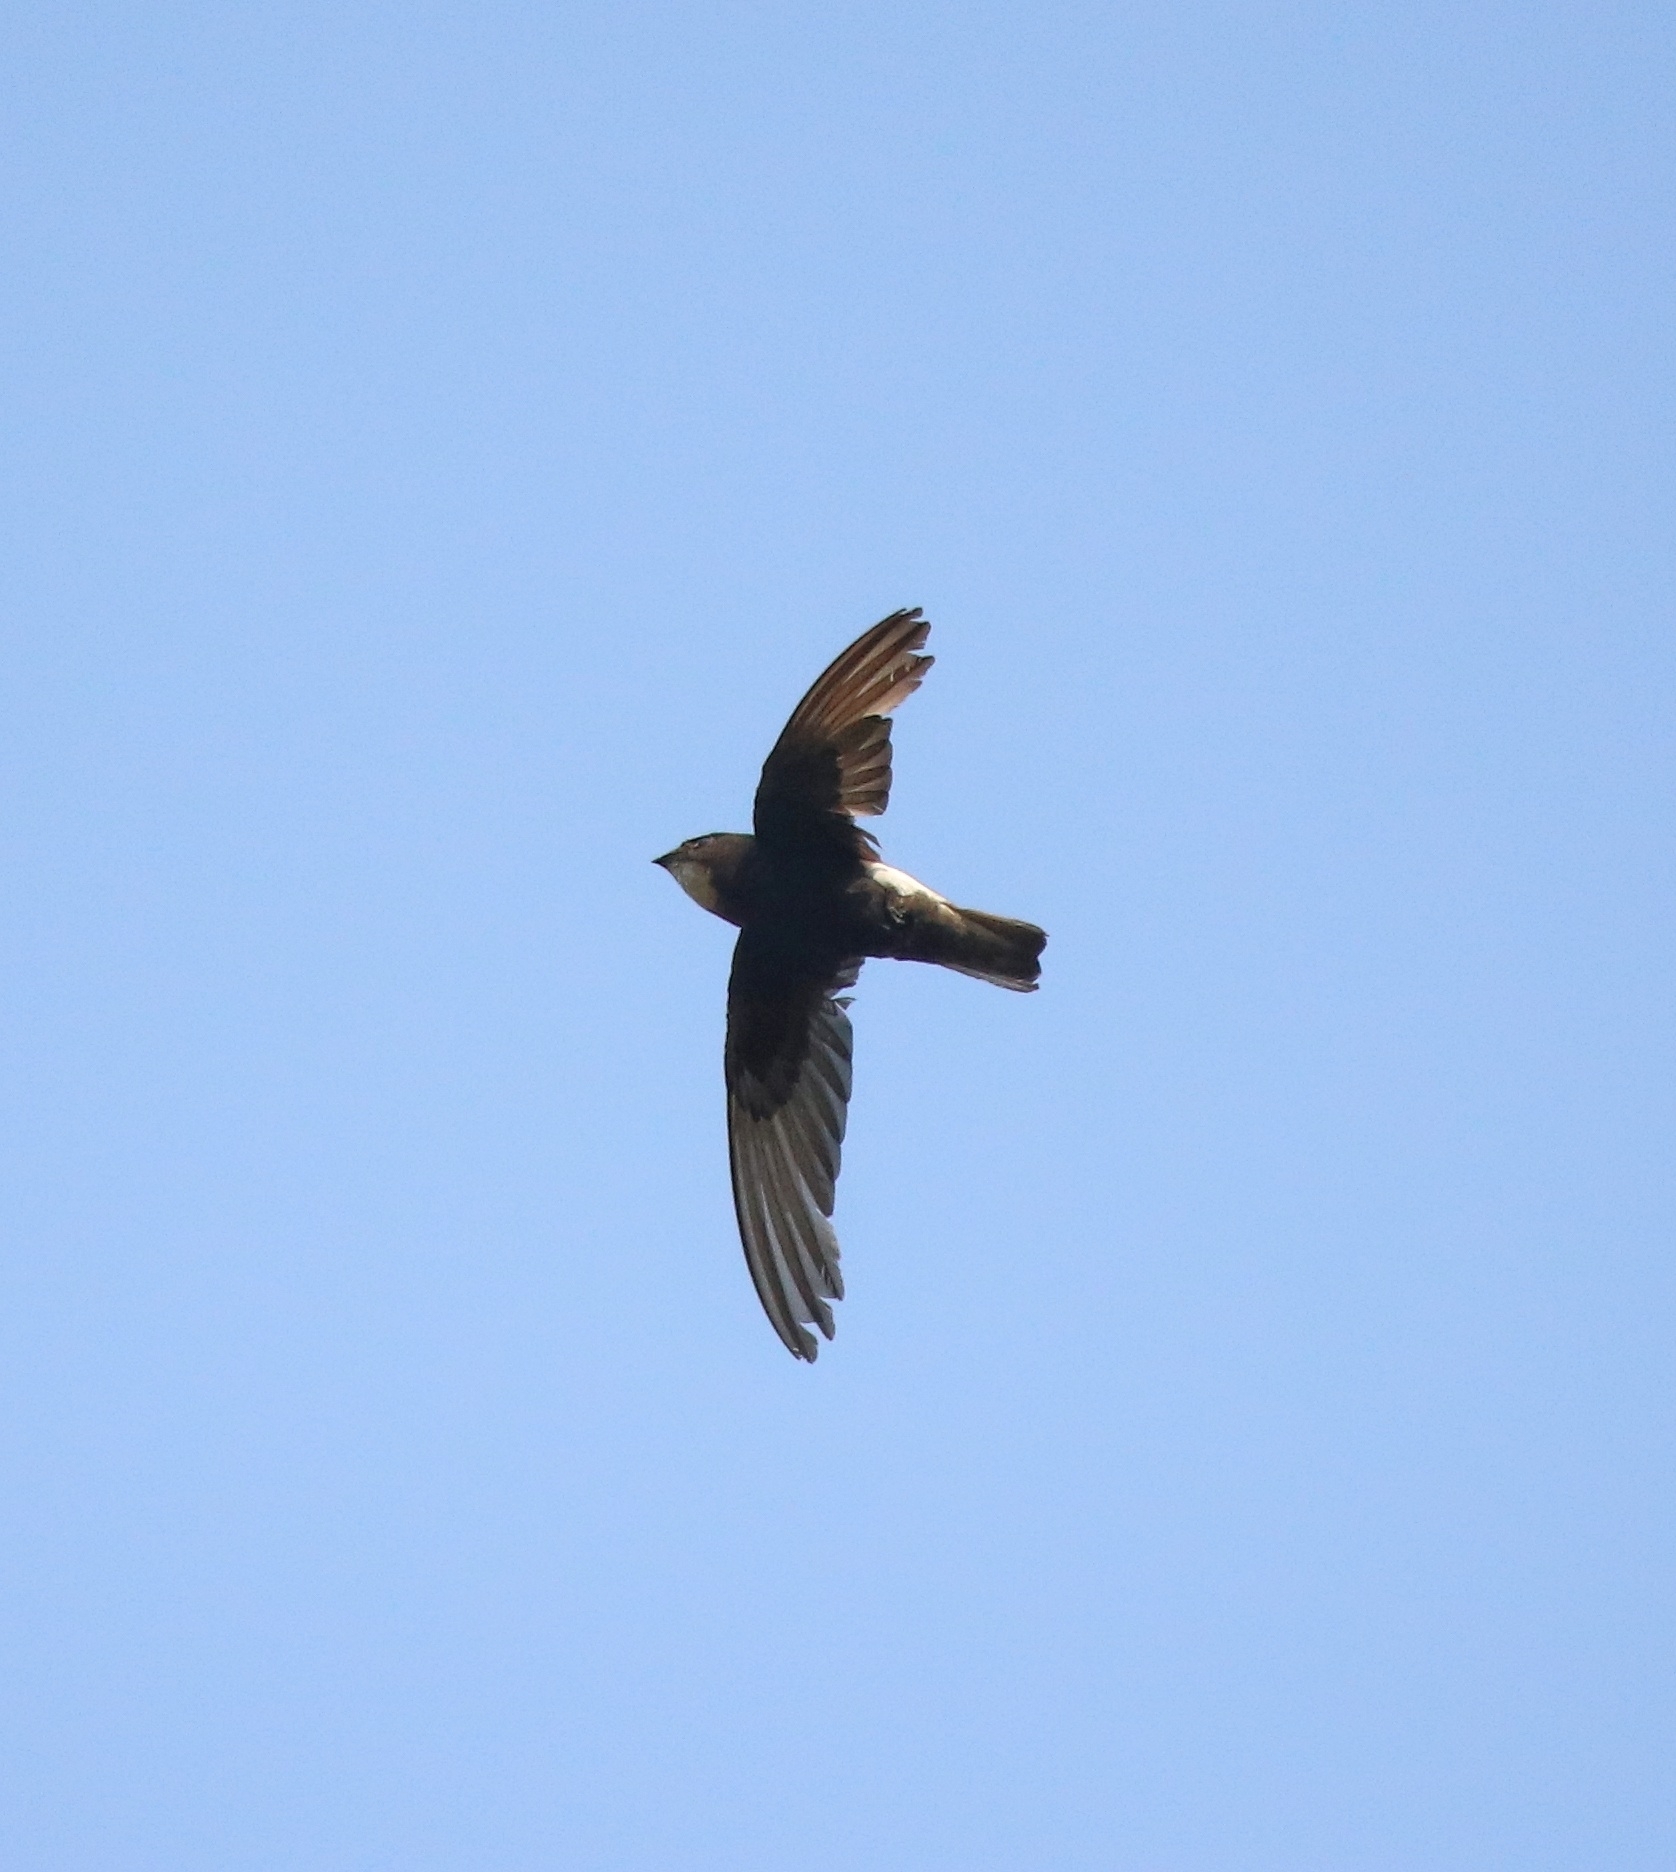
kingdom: Animalia
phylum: Chordata
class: Aves
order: Apodiformes
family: Apodidae
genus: Apus
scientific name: Apus affinis
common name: Little swift
